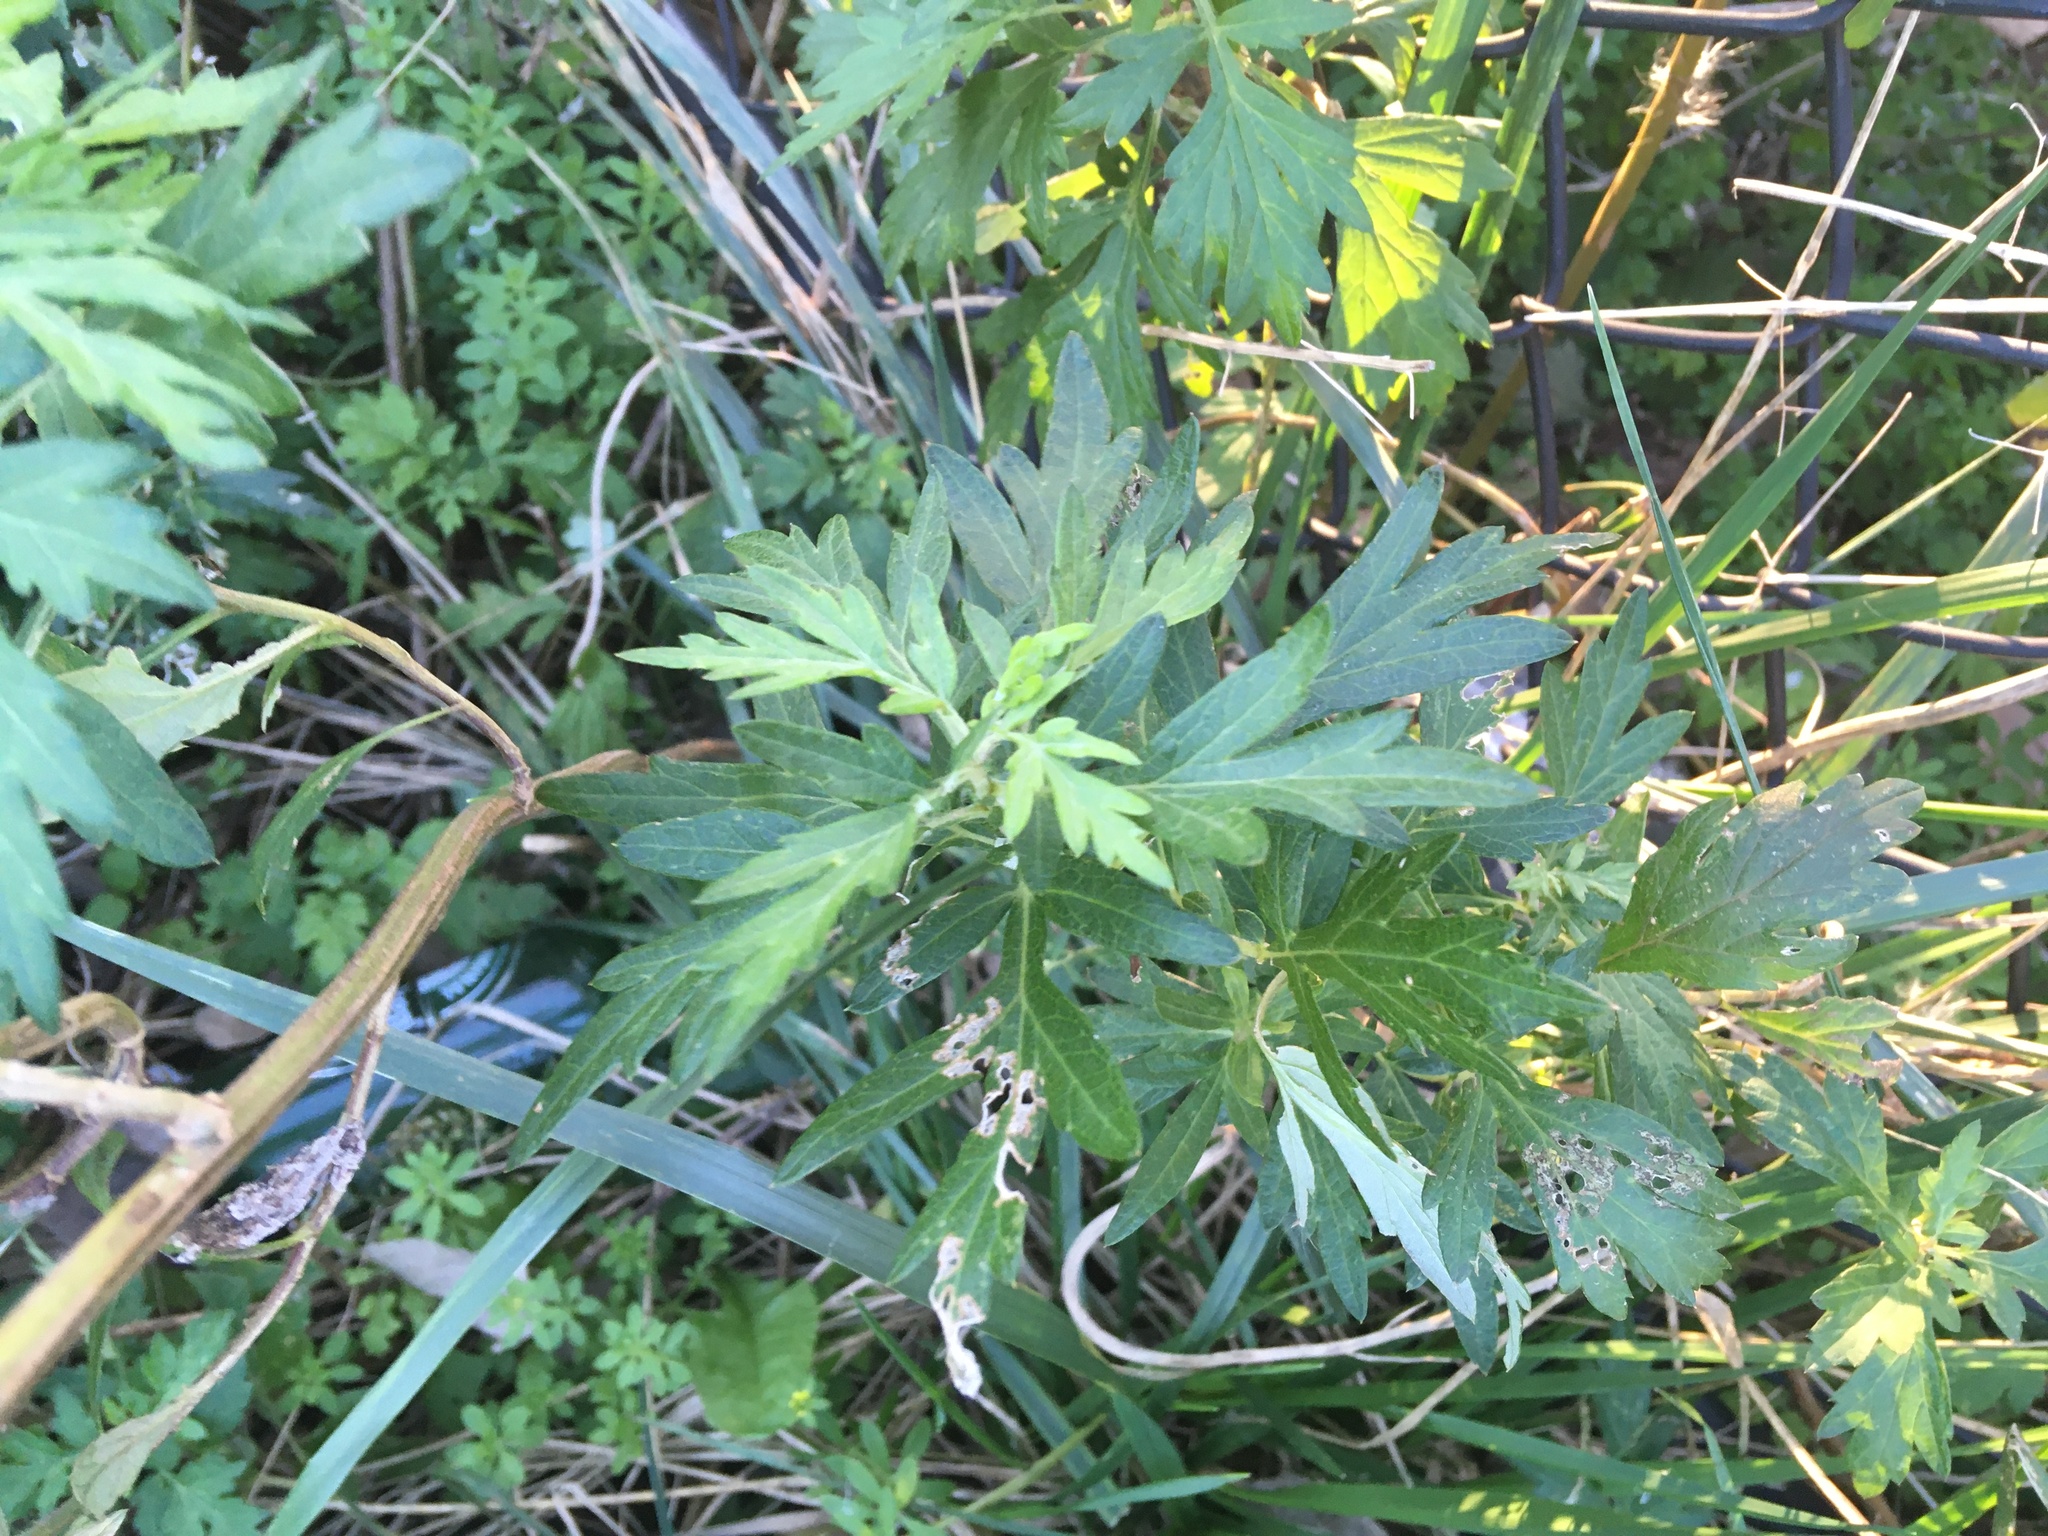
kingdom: Plantae
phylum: Tracheophyta
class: Magnoliopsida
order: Asterales
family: Asteraceae
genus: Artemisia
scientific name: Artemisia vulgaris
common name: Mugwort
